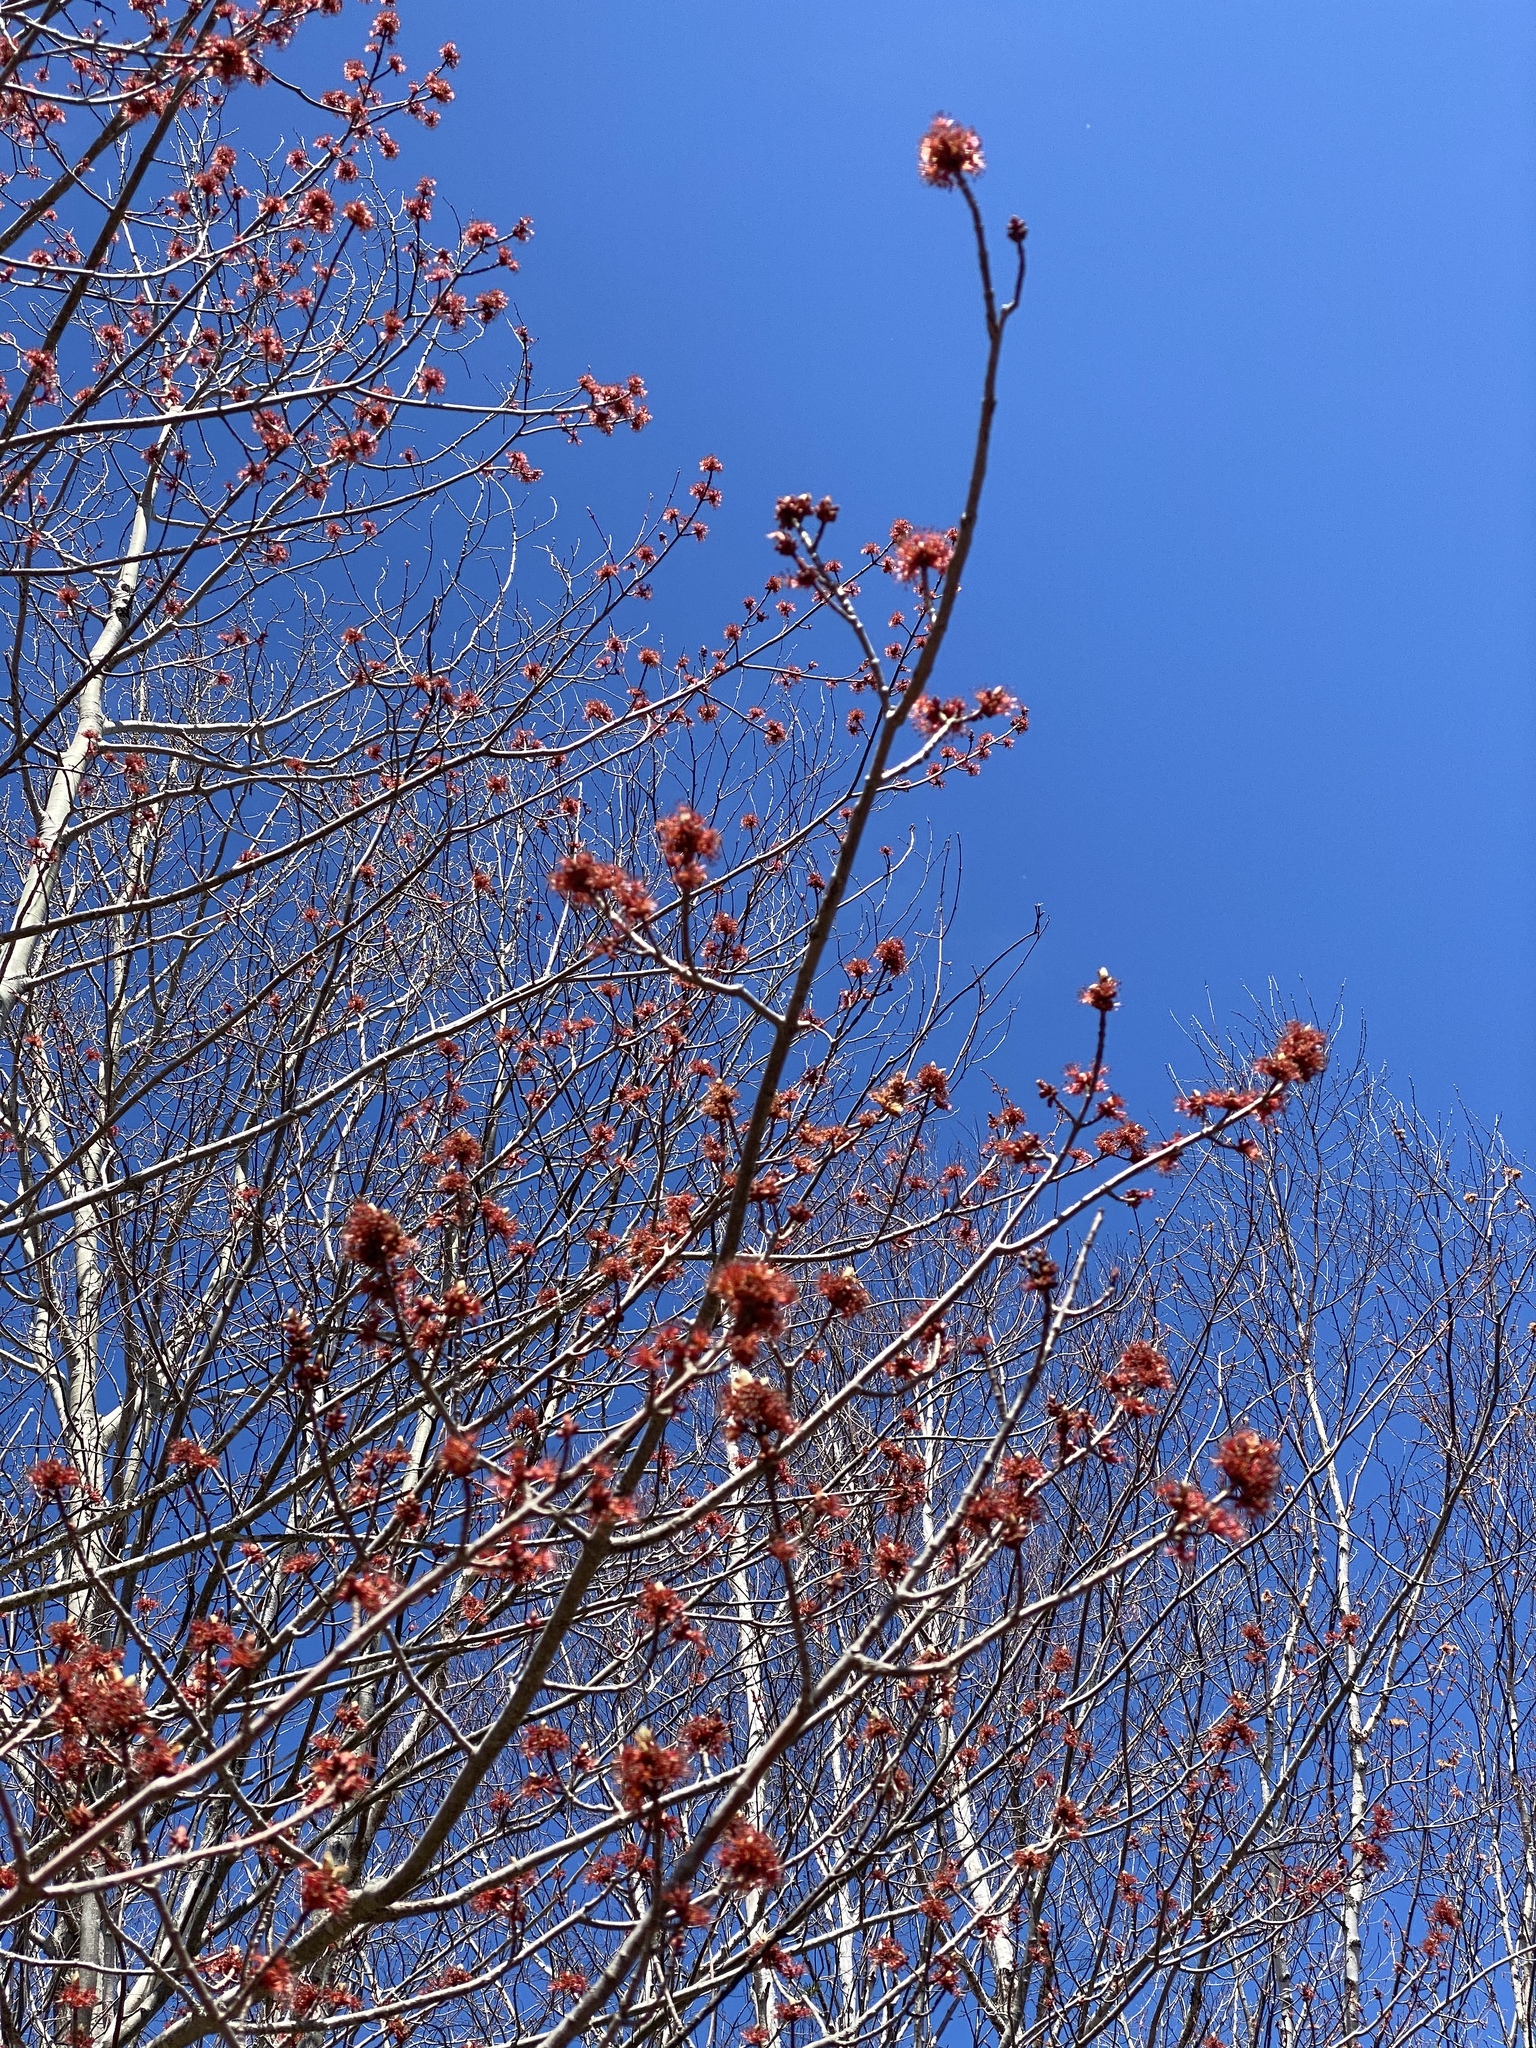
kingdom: Plantae
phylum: Tracheophyta
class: Magnoliopsida
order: Sapindales
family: Sapindaceae
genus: Acer
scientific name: Acer rubrum
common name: Red maple
